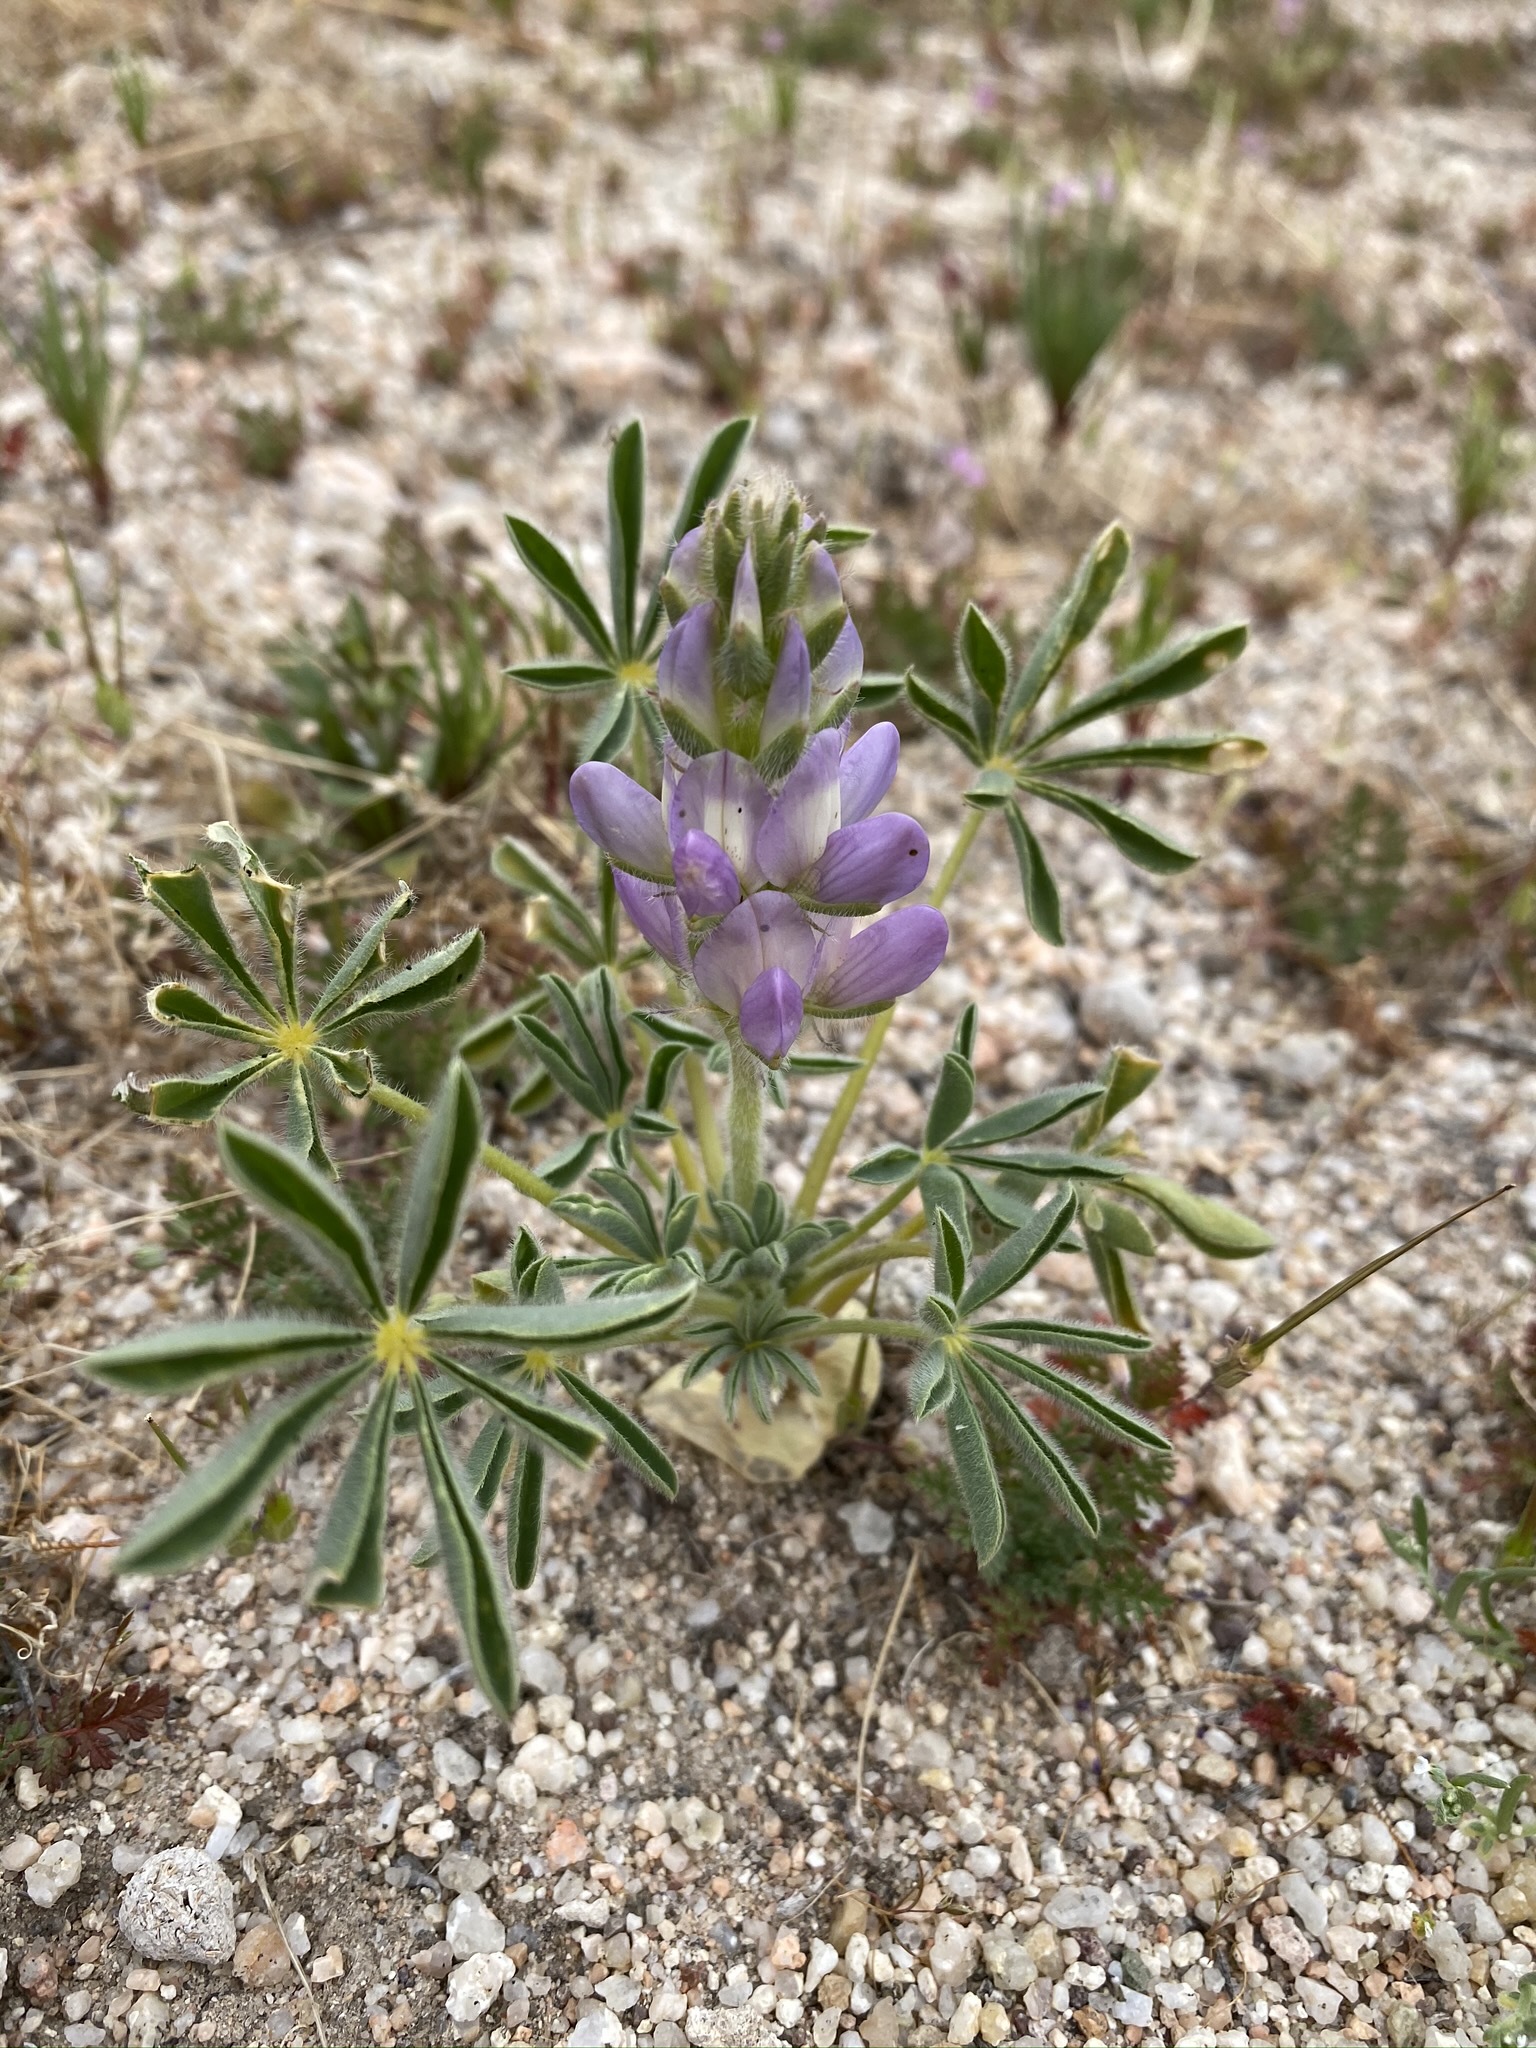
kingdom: Plantae
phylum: Tracheophyta
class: Magnoliopsida
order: Fabales
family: Fabaceae
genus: Lupinus
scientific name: Lupinus microcarpus
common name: Chick lupine
